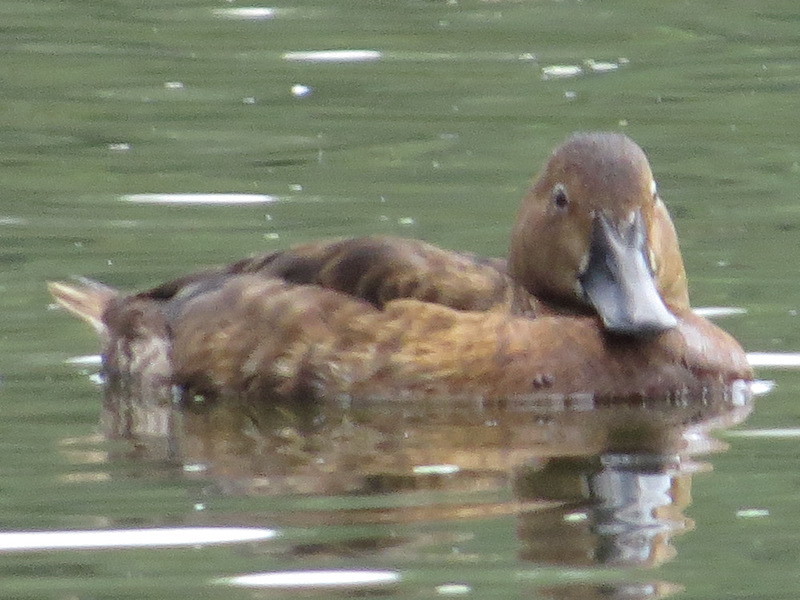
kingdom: Animalia
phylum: Chordata
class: Aves
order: Anseriformes
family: Anatidae
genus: Aythya
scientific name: Aythya ferina
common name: Common pochard
